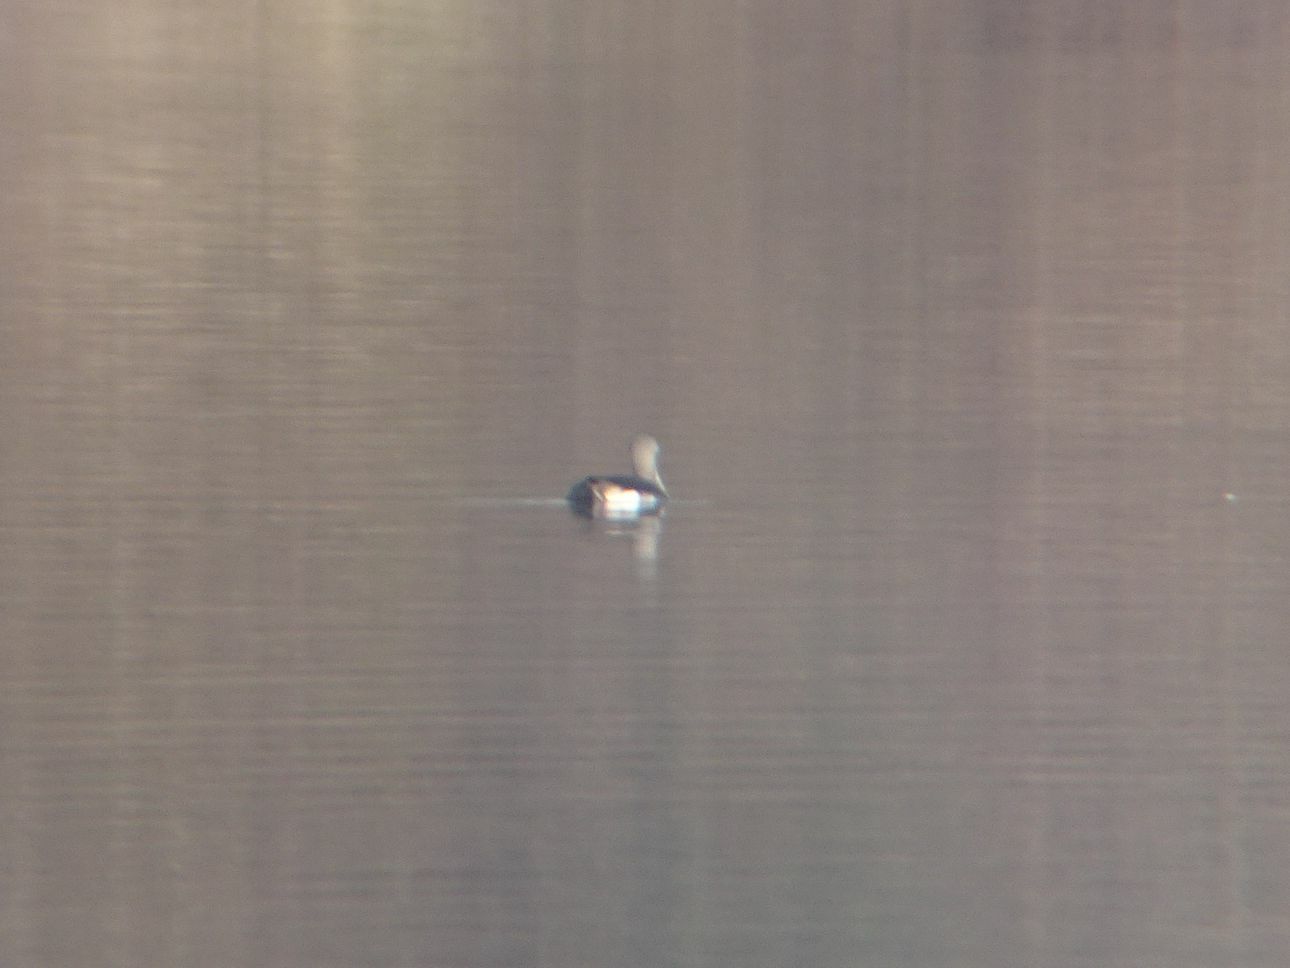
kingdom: Animalia
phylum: Chordata
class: Aves
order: Gaviiformes
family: Gaviidae
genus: Gavia
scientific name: Gavia arctica
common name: Black-throated loon
